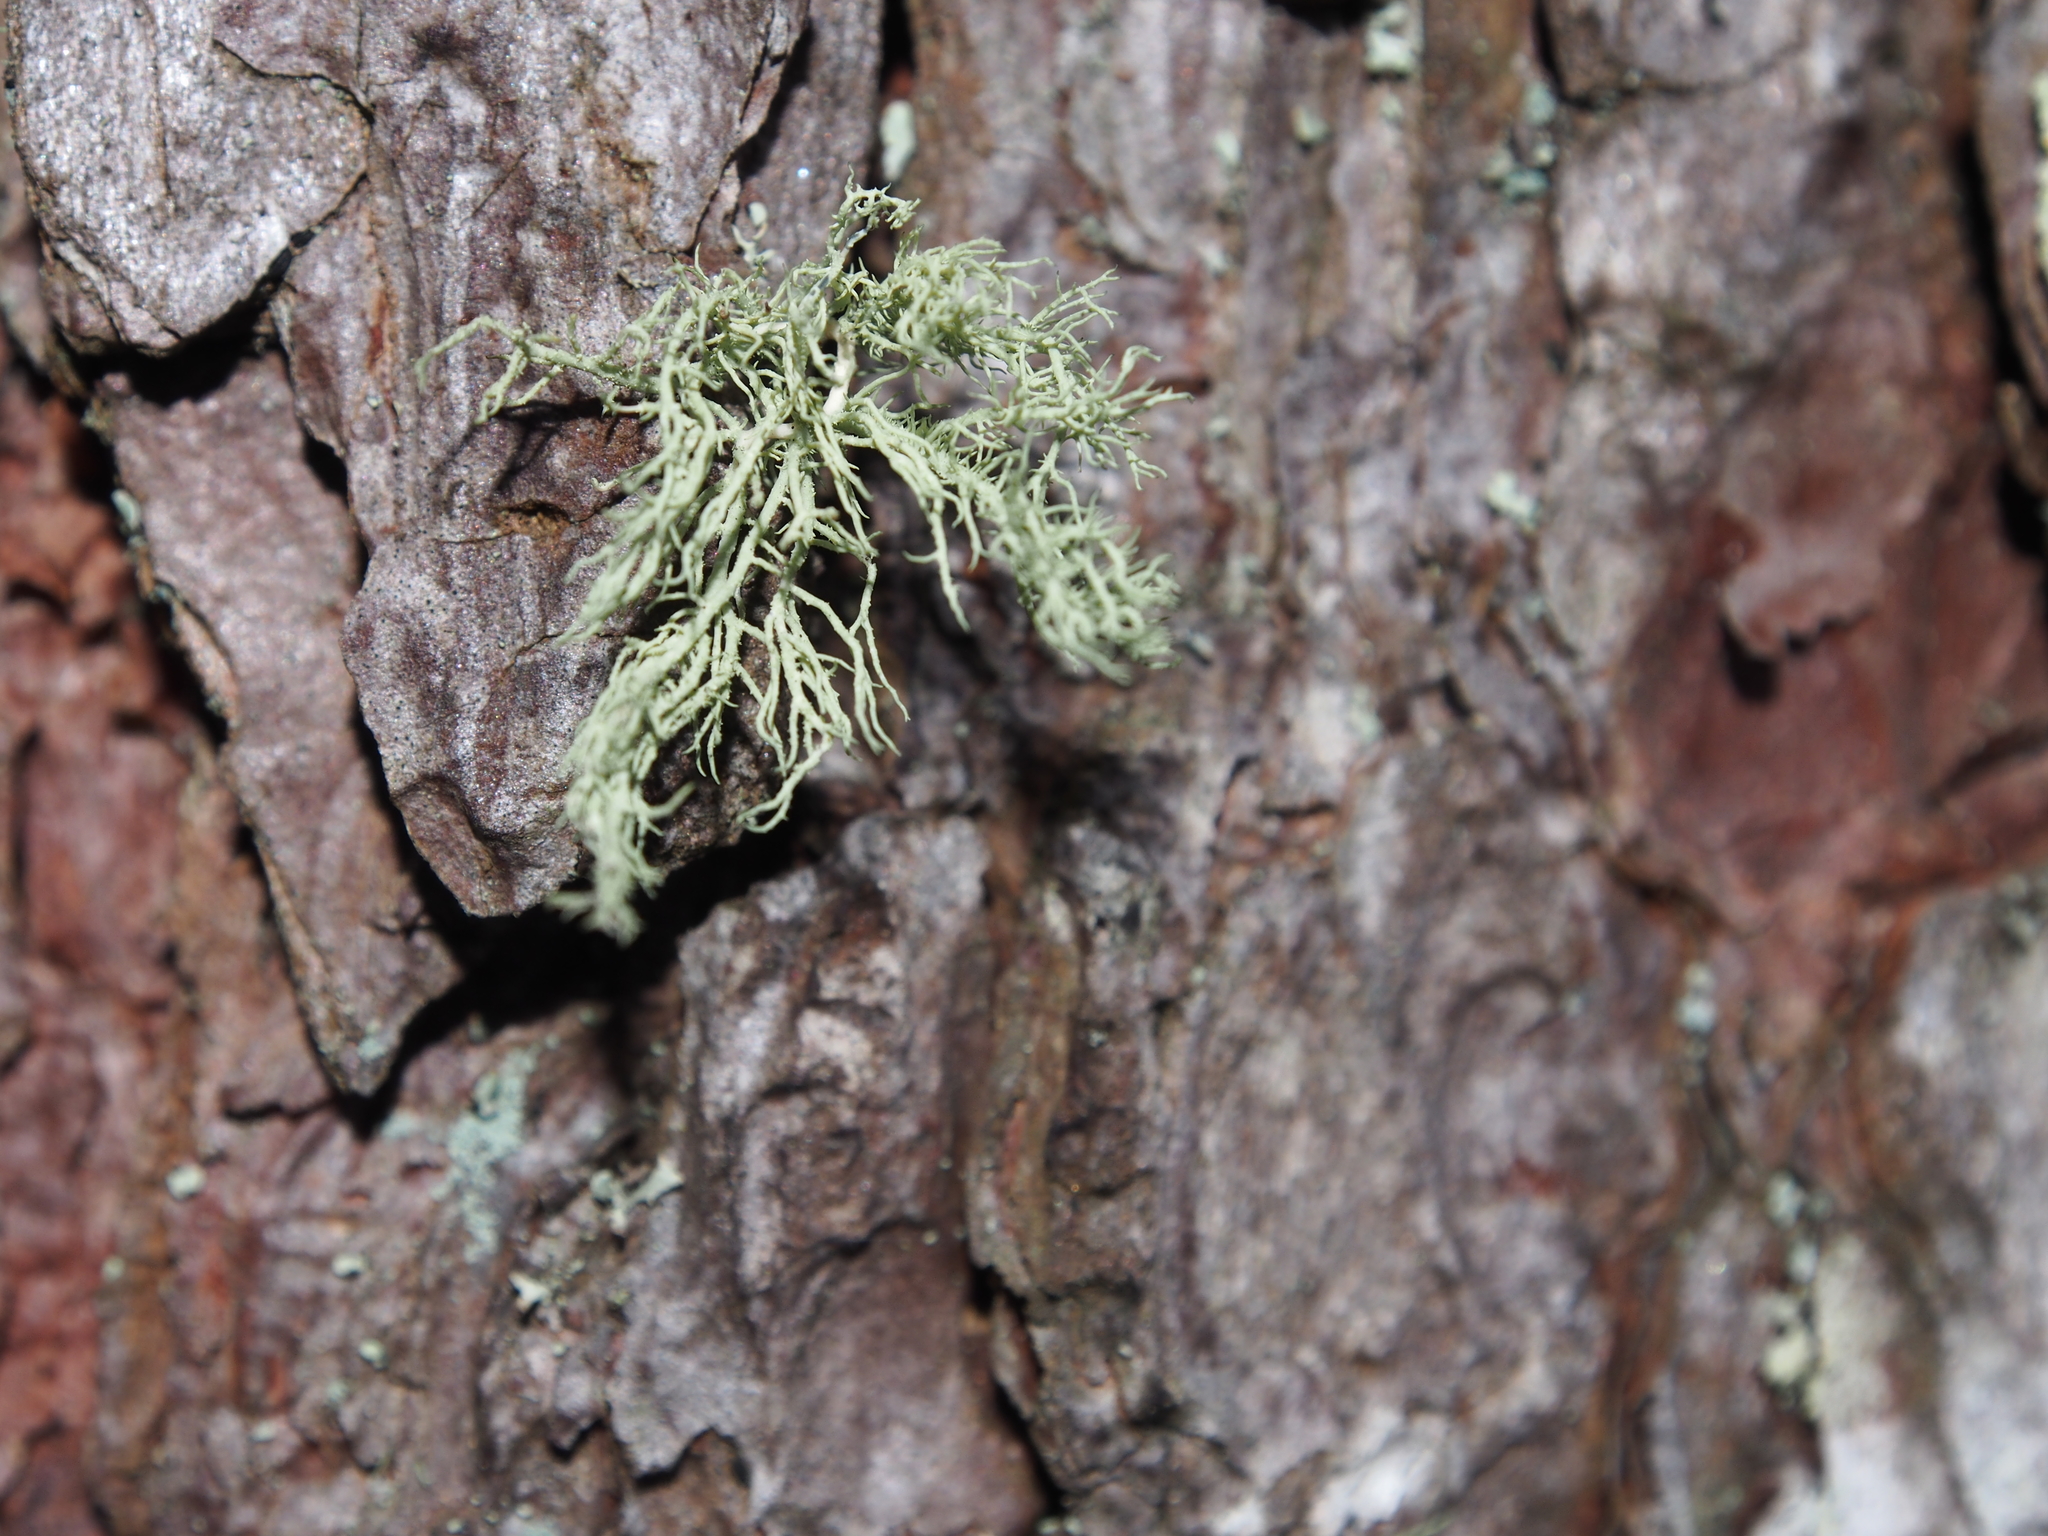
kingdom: Fungi
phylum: Ascomycota
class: Lecanoromycetes
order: Lecanorales
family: Parmeliaceae
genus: Usnea
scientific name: Usnea hirta
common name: Bristly beard lichen
